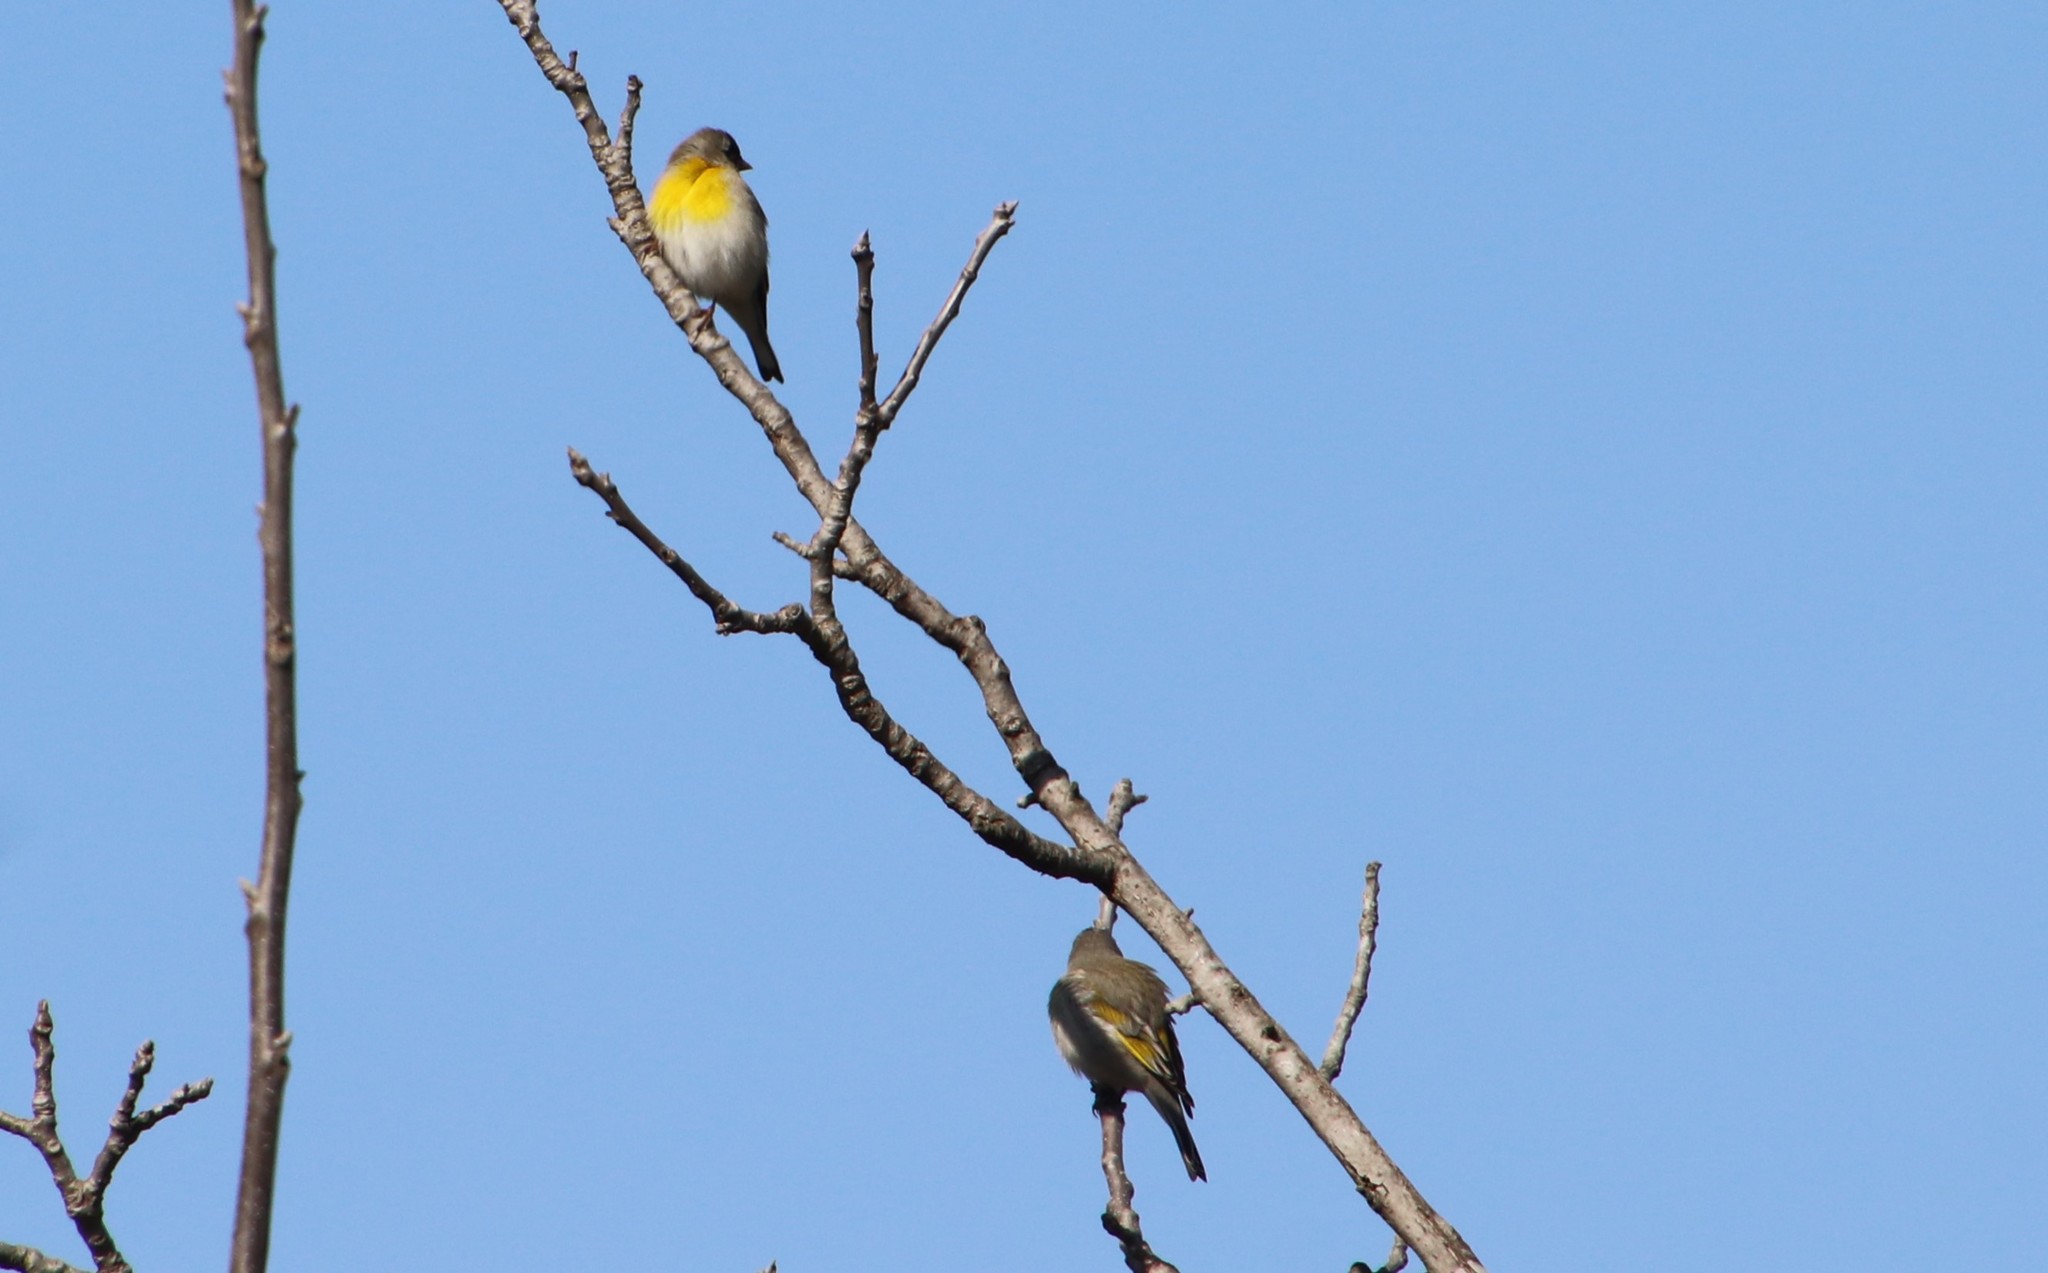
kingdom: Animalia
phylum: Chordata
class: Aves
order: Passeriformes
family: Fringillidae
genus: Spinus
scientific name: Spinus lawrencei
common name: Lawrence's goldfinch
